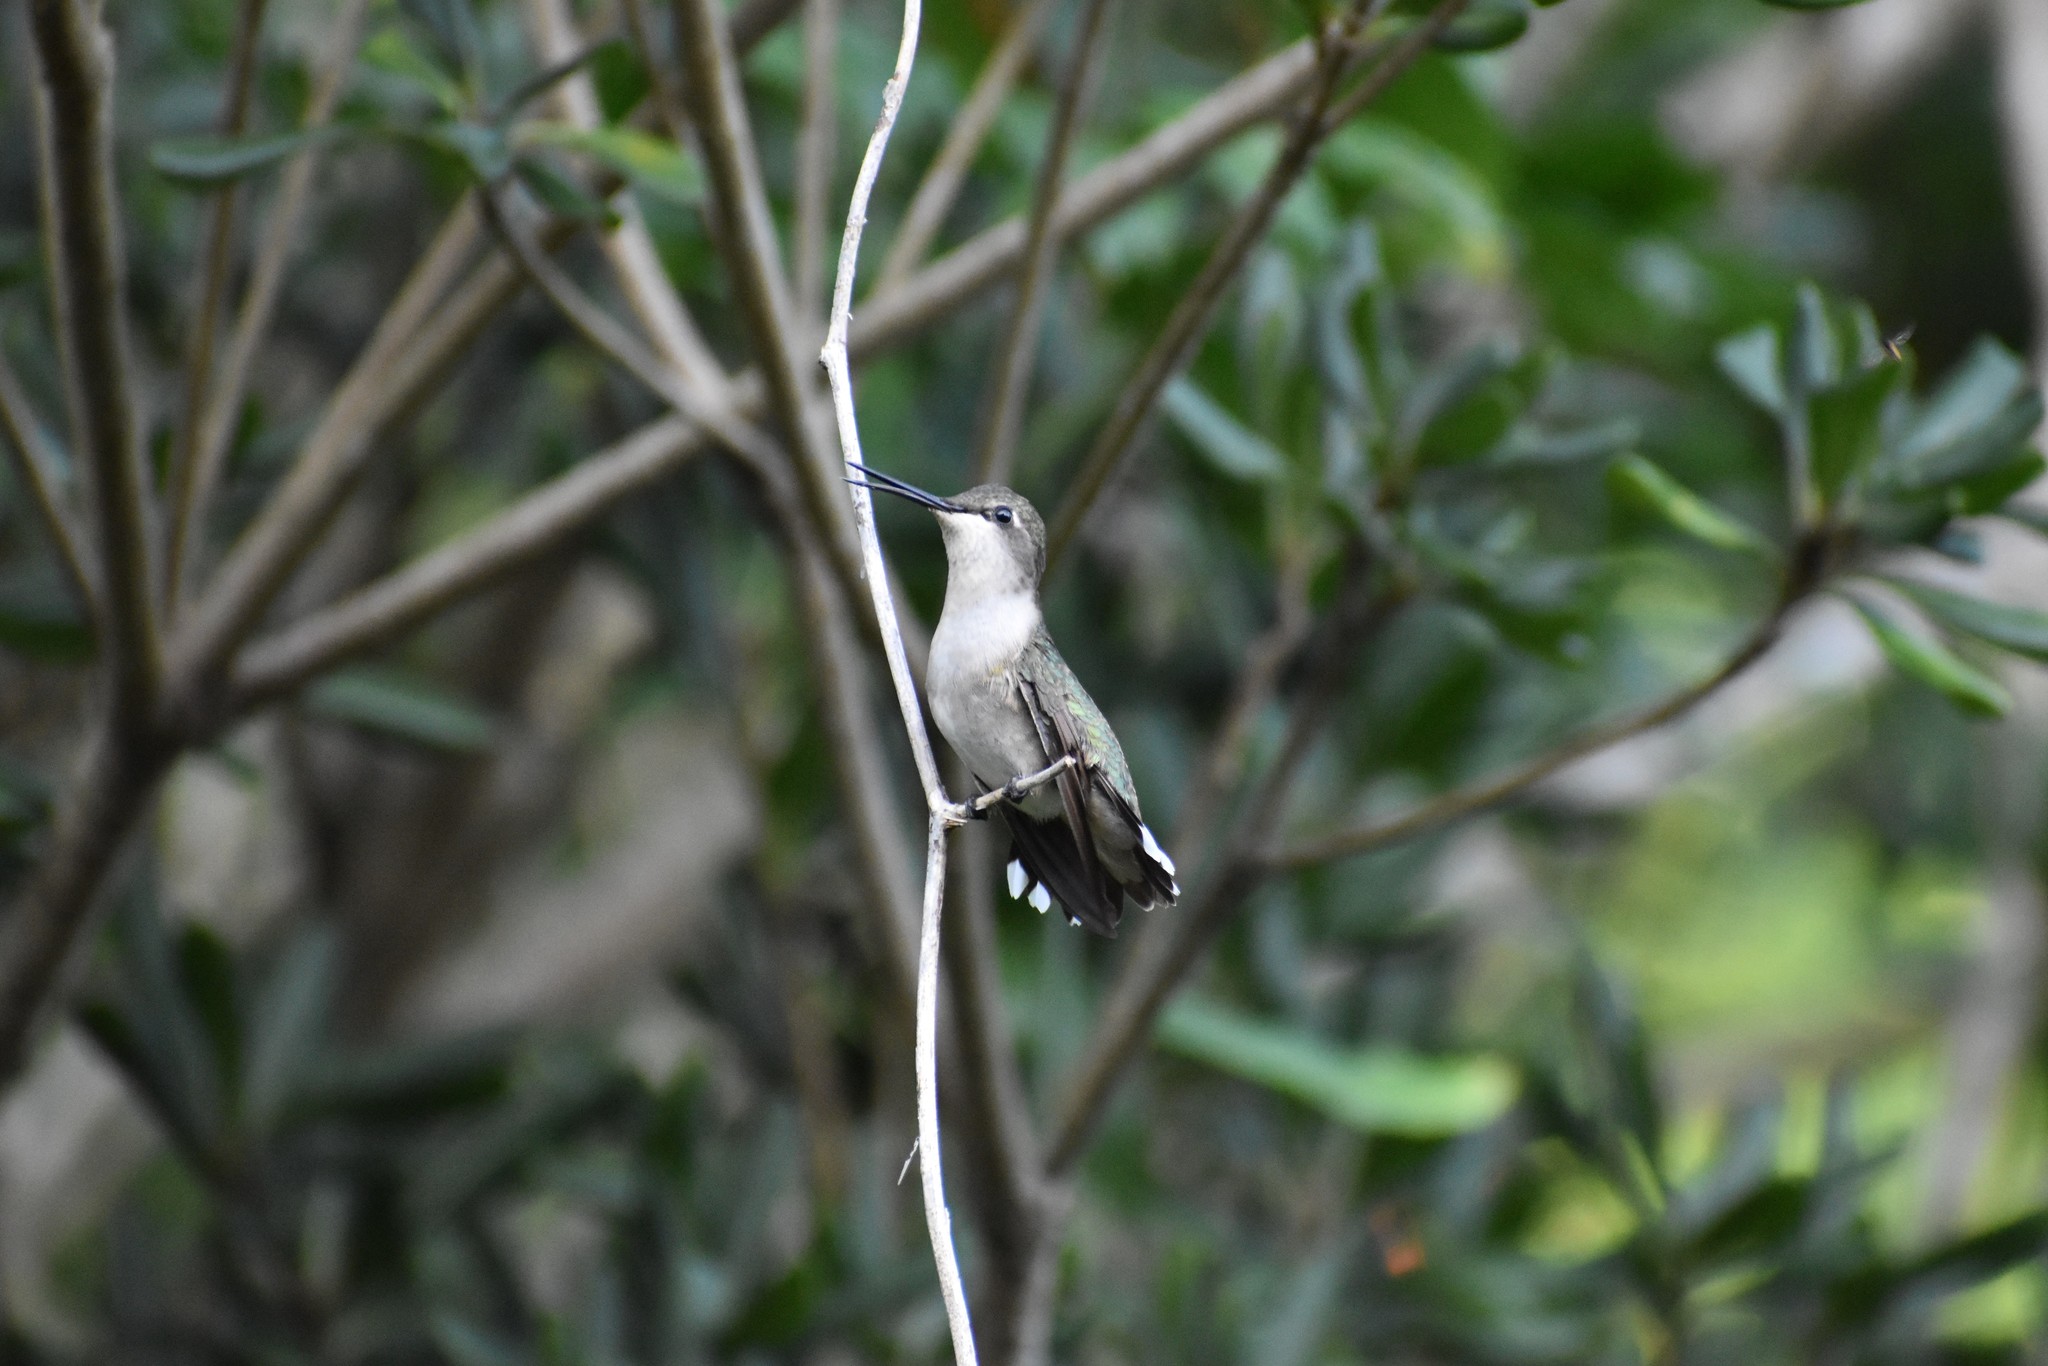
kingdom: Animalia
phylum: Chordata
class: Aves
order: Apodiformes
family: Trochilidae
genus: Archilochus
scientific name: Archilochus colubris
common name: Ruby-throated hummingbird
